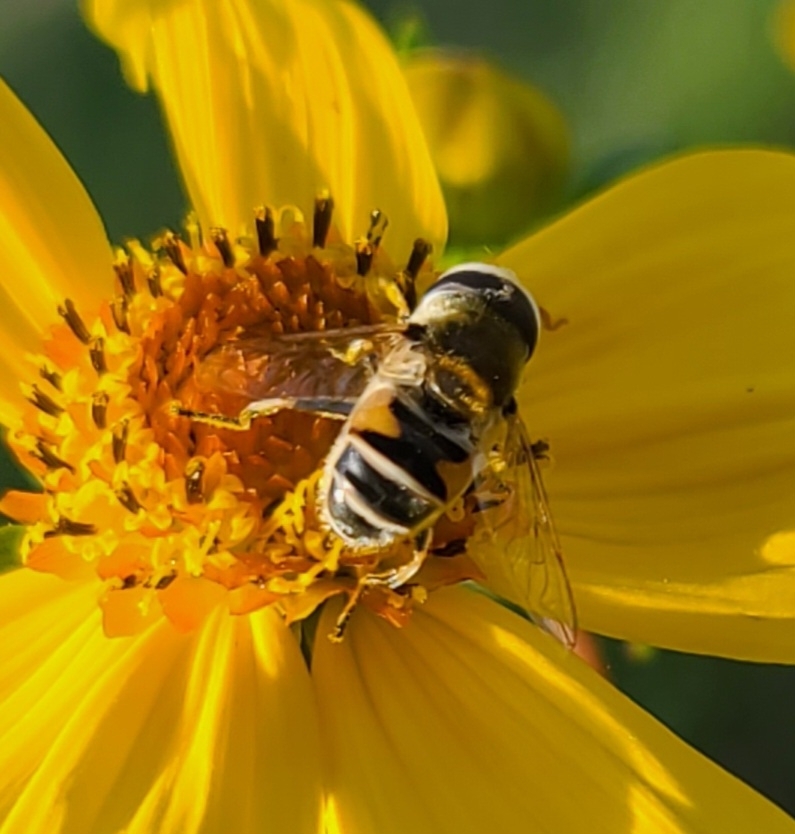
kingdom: Animalia
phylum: Arthropoda
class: Insecta
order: Diptera
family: Syrphidae
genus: Eristalis
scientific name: Eristalis stipator
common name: Yellow-shouldered drone fly
